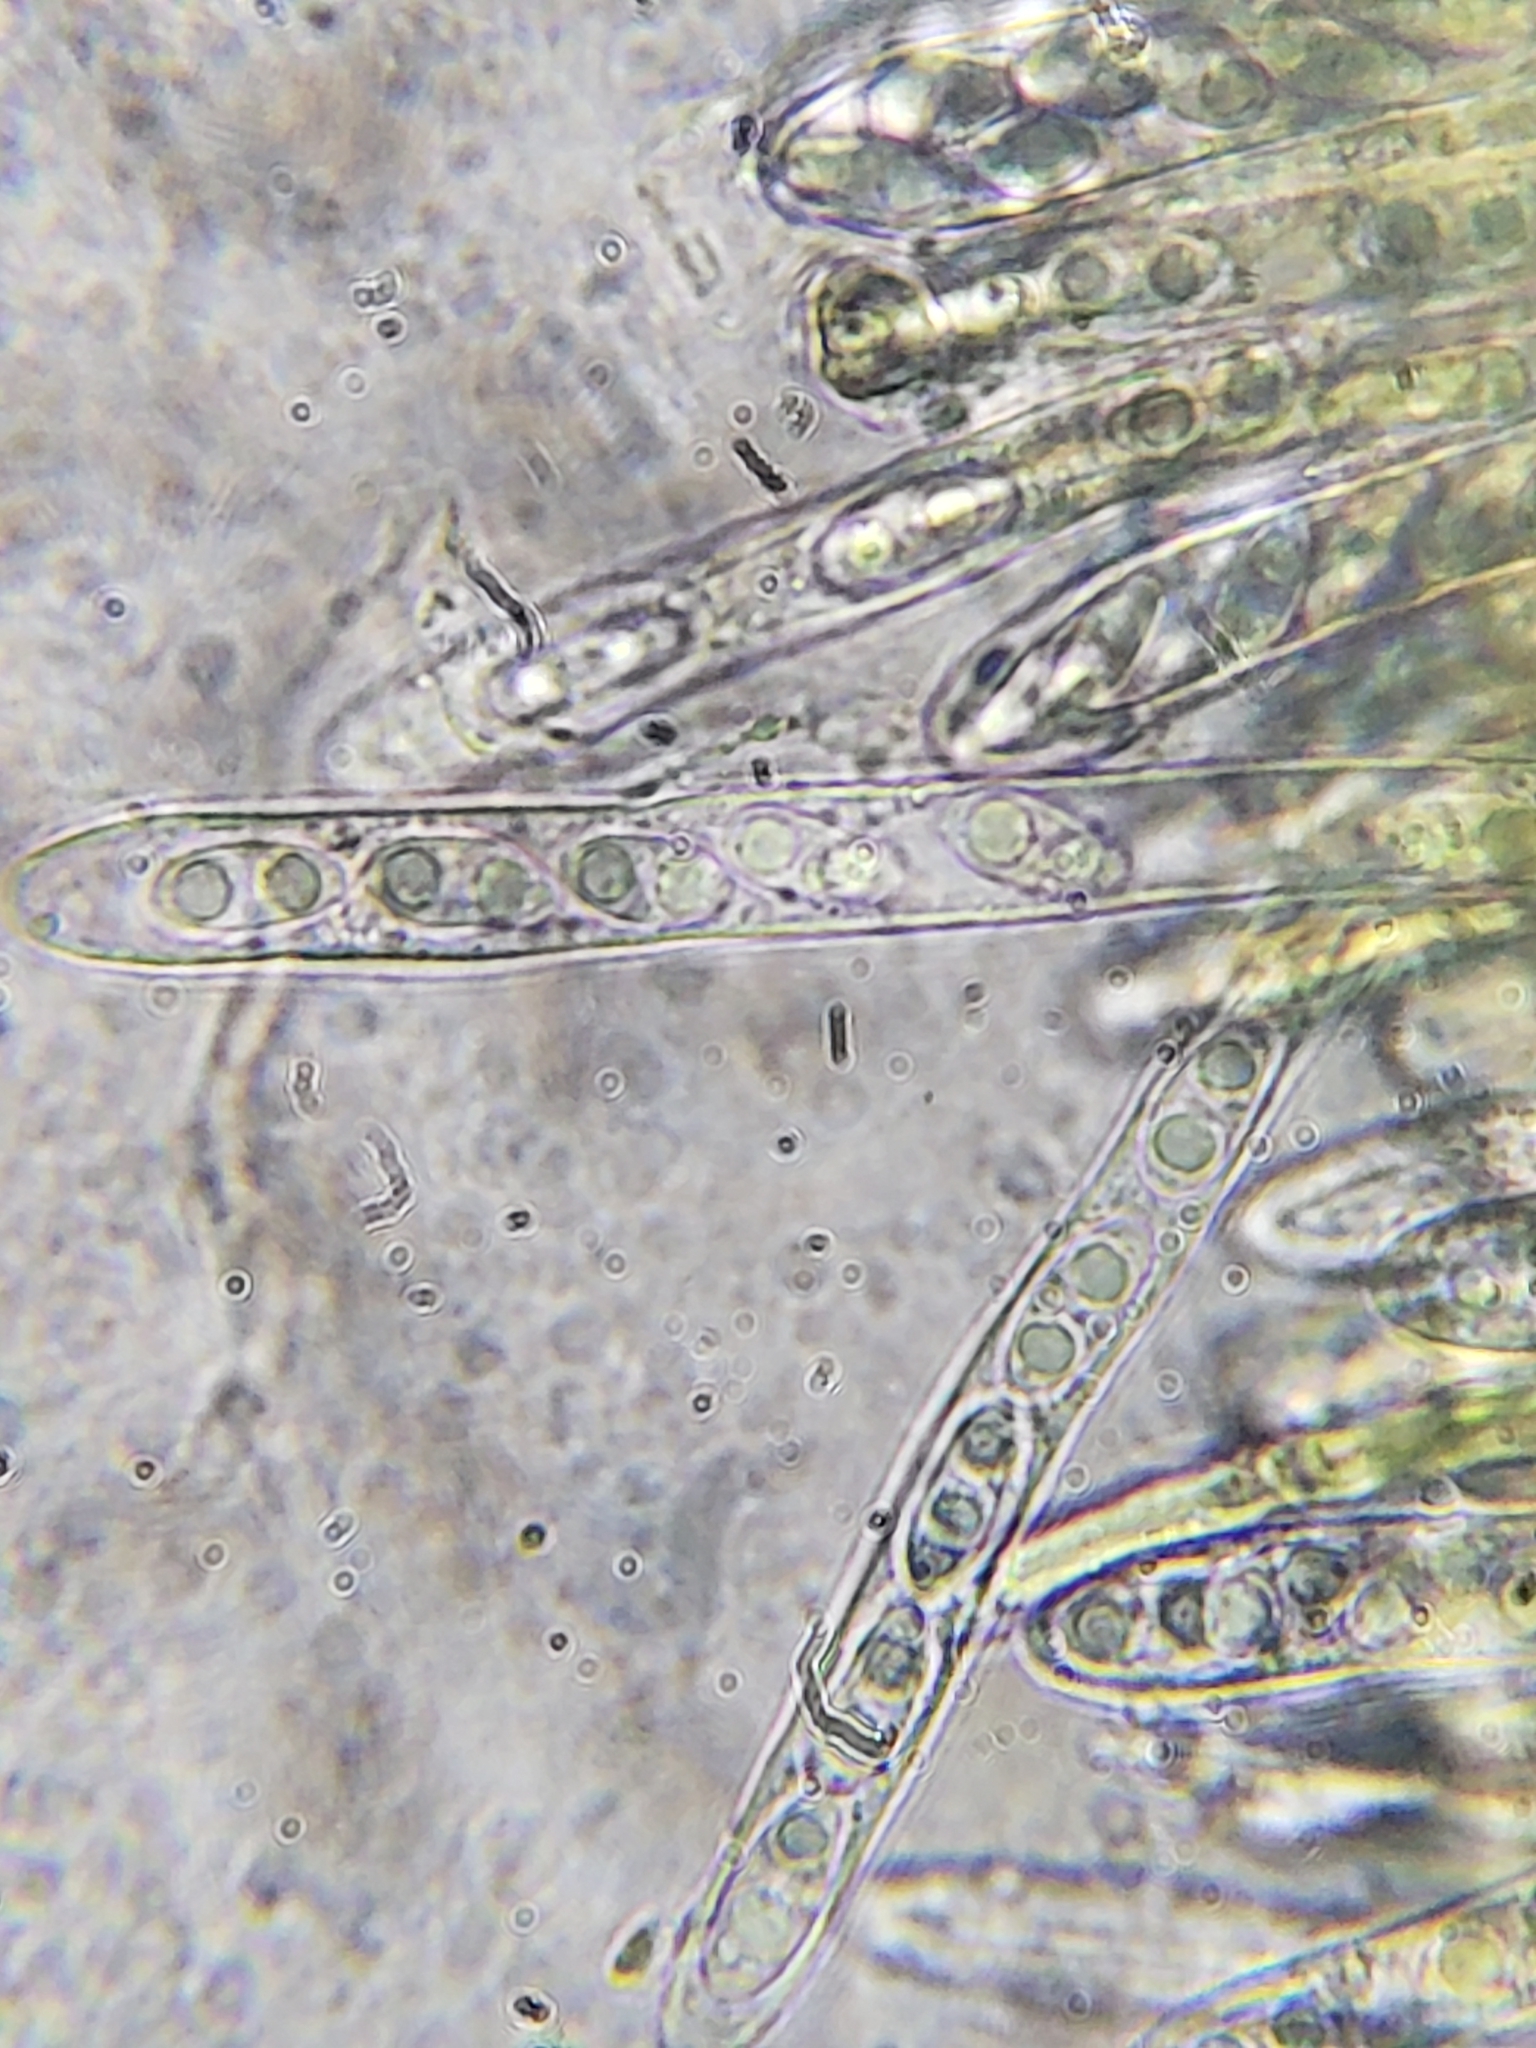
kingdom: Fungi
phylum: Ascomycota
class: Leotiomycetes
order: Helotiales
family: Cenangiaceae
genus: Chlorencoelia
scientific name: Chlorencoelia torta
